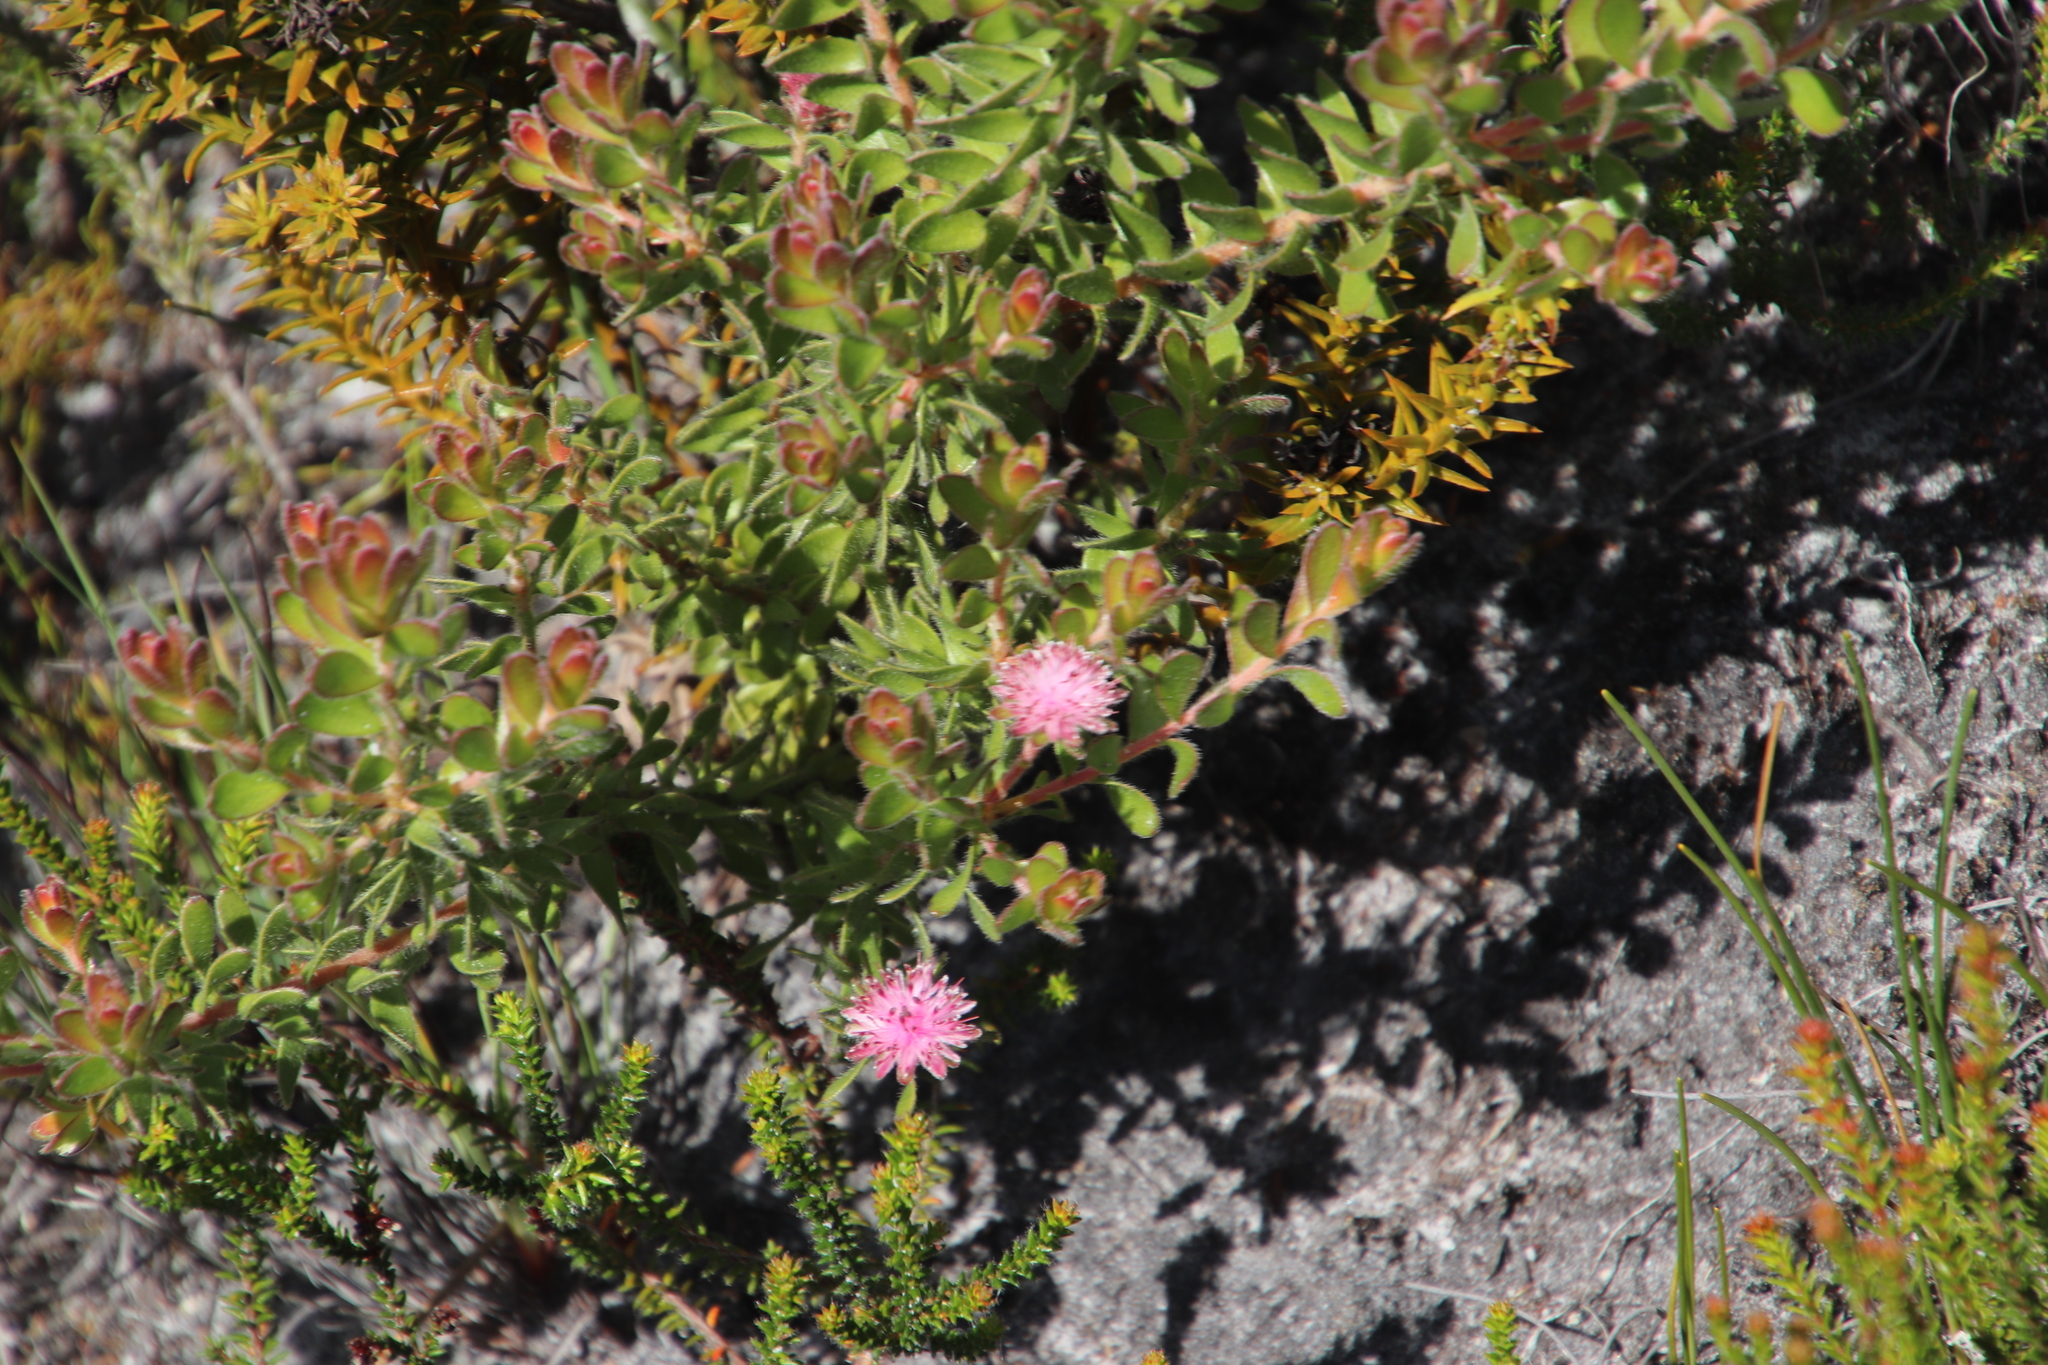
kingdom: Plantae
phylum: Tracheophyta
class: Magnoliopsida
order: Proteales
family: Proteaceae
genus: Diastella
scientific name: Diastella divaricata
